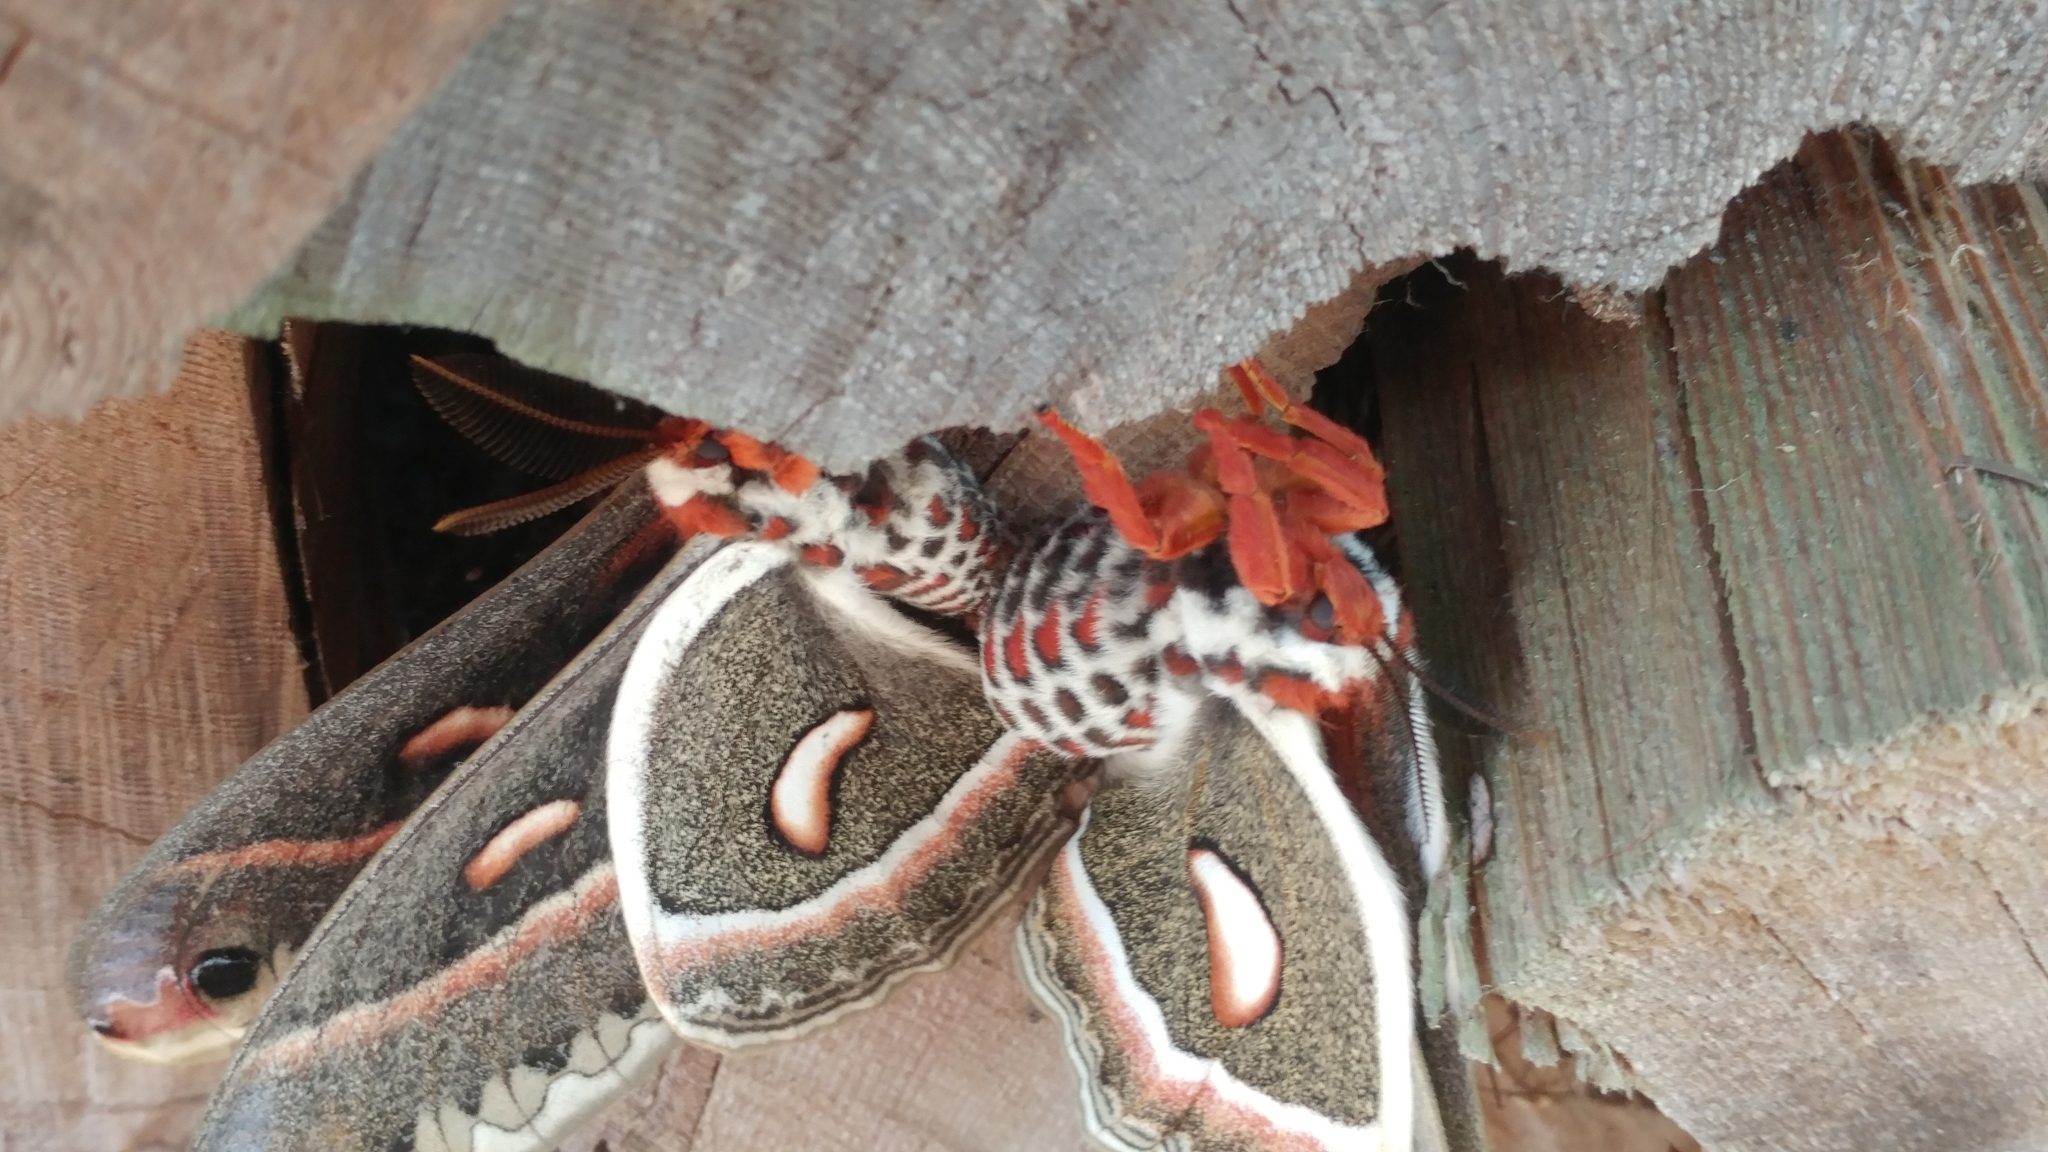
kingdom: Animalia
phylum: Arthropoda
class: Insecta
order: Lepidoptera
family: Saturniidae
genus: Hyalophora
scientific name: Hyalophora cecropia
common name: Cecropia silkmoth
